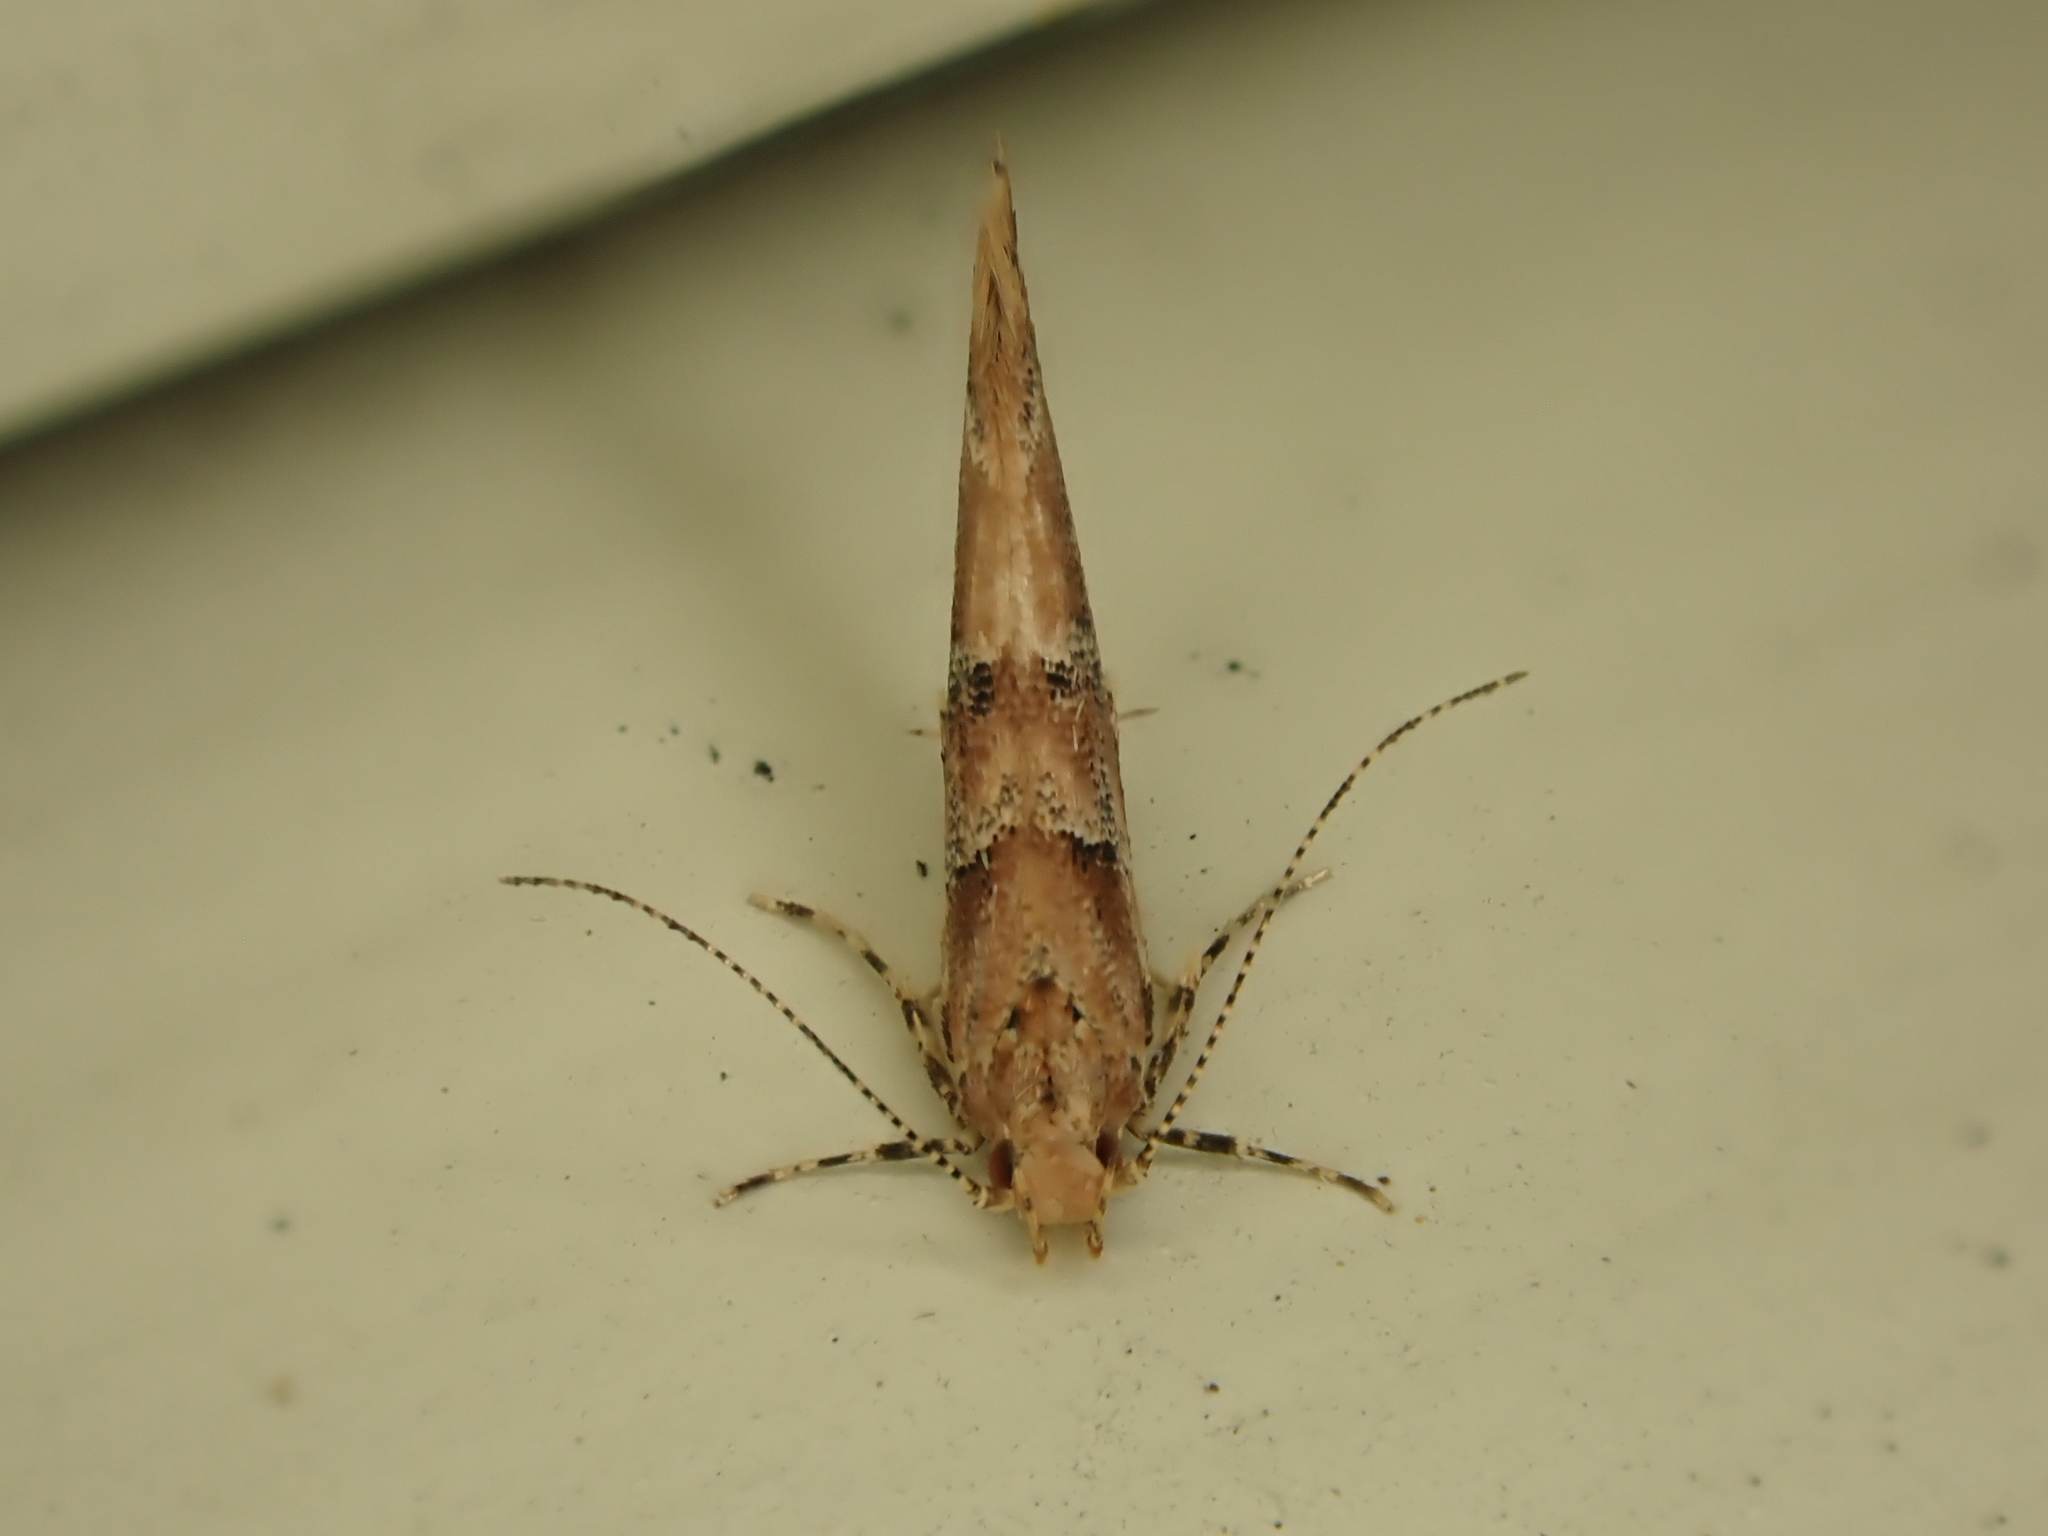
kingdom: Animalia
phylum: Arthropoda
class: Insecta
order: Lepidoptera
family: Cosmopterigidae
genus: Pyroderces
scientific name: Pyroderces aellotricha
